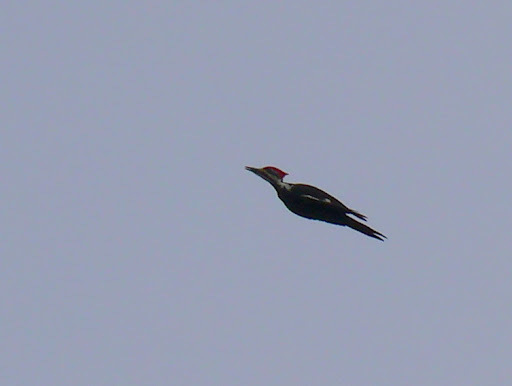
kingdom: Animalia
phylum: Chordata
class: Aves
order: Piciformes
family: Picidae
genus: Dryocopus
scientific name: Dryocopus pileatus
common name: Pileated woodpecker
